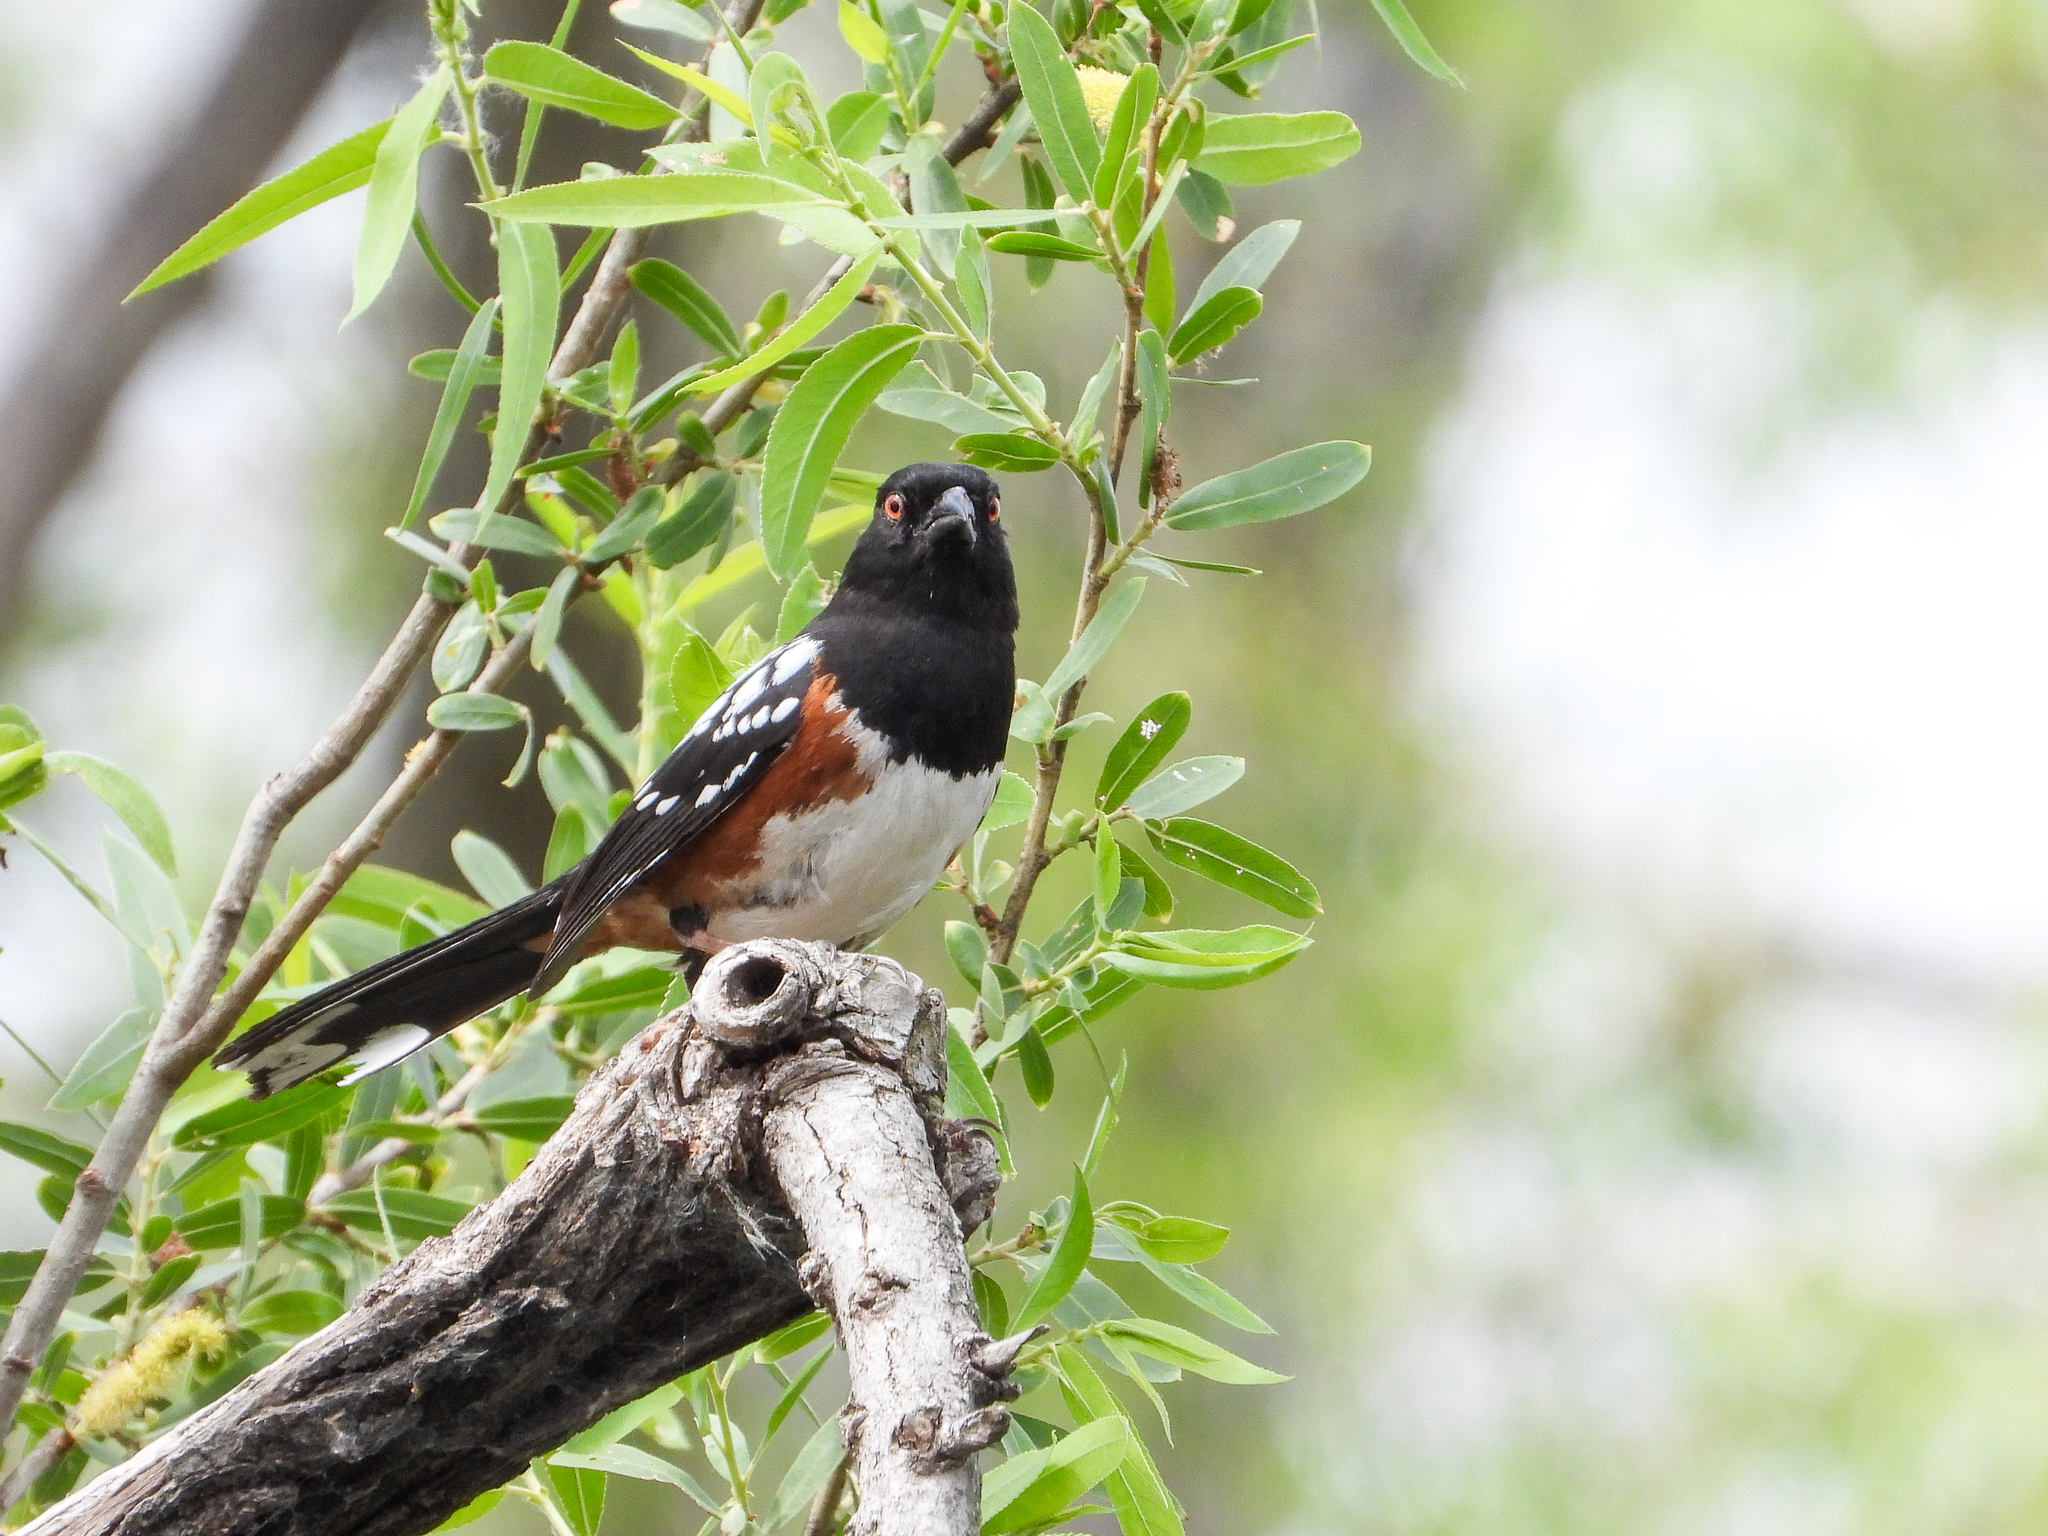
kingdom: Animalia
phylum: Chordata
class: Aves
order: Passeriformes
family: Passerellidae
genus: Pipilo
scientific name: Pipilo maculatus
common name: Spotted towhee
